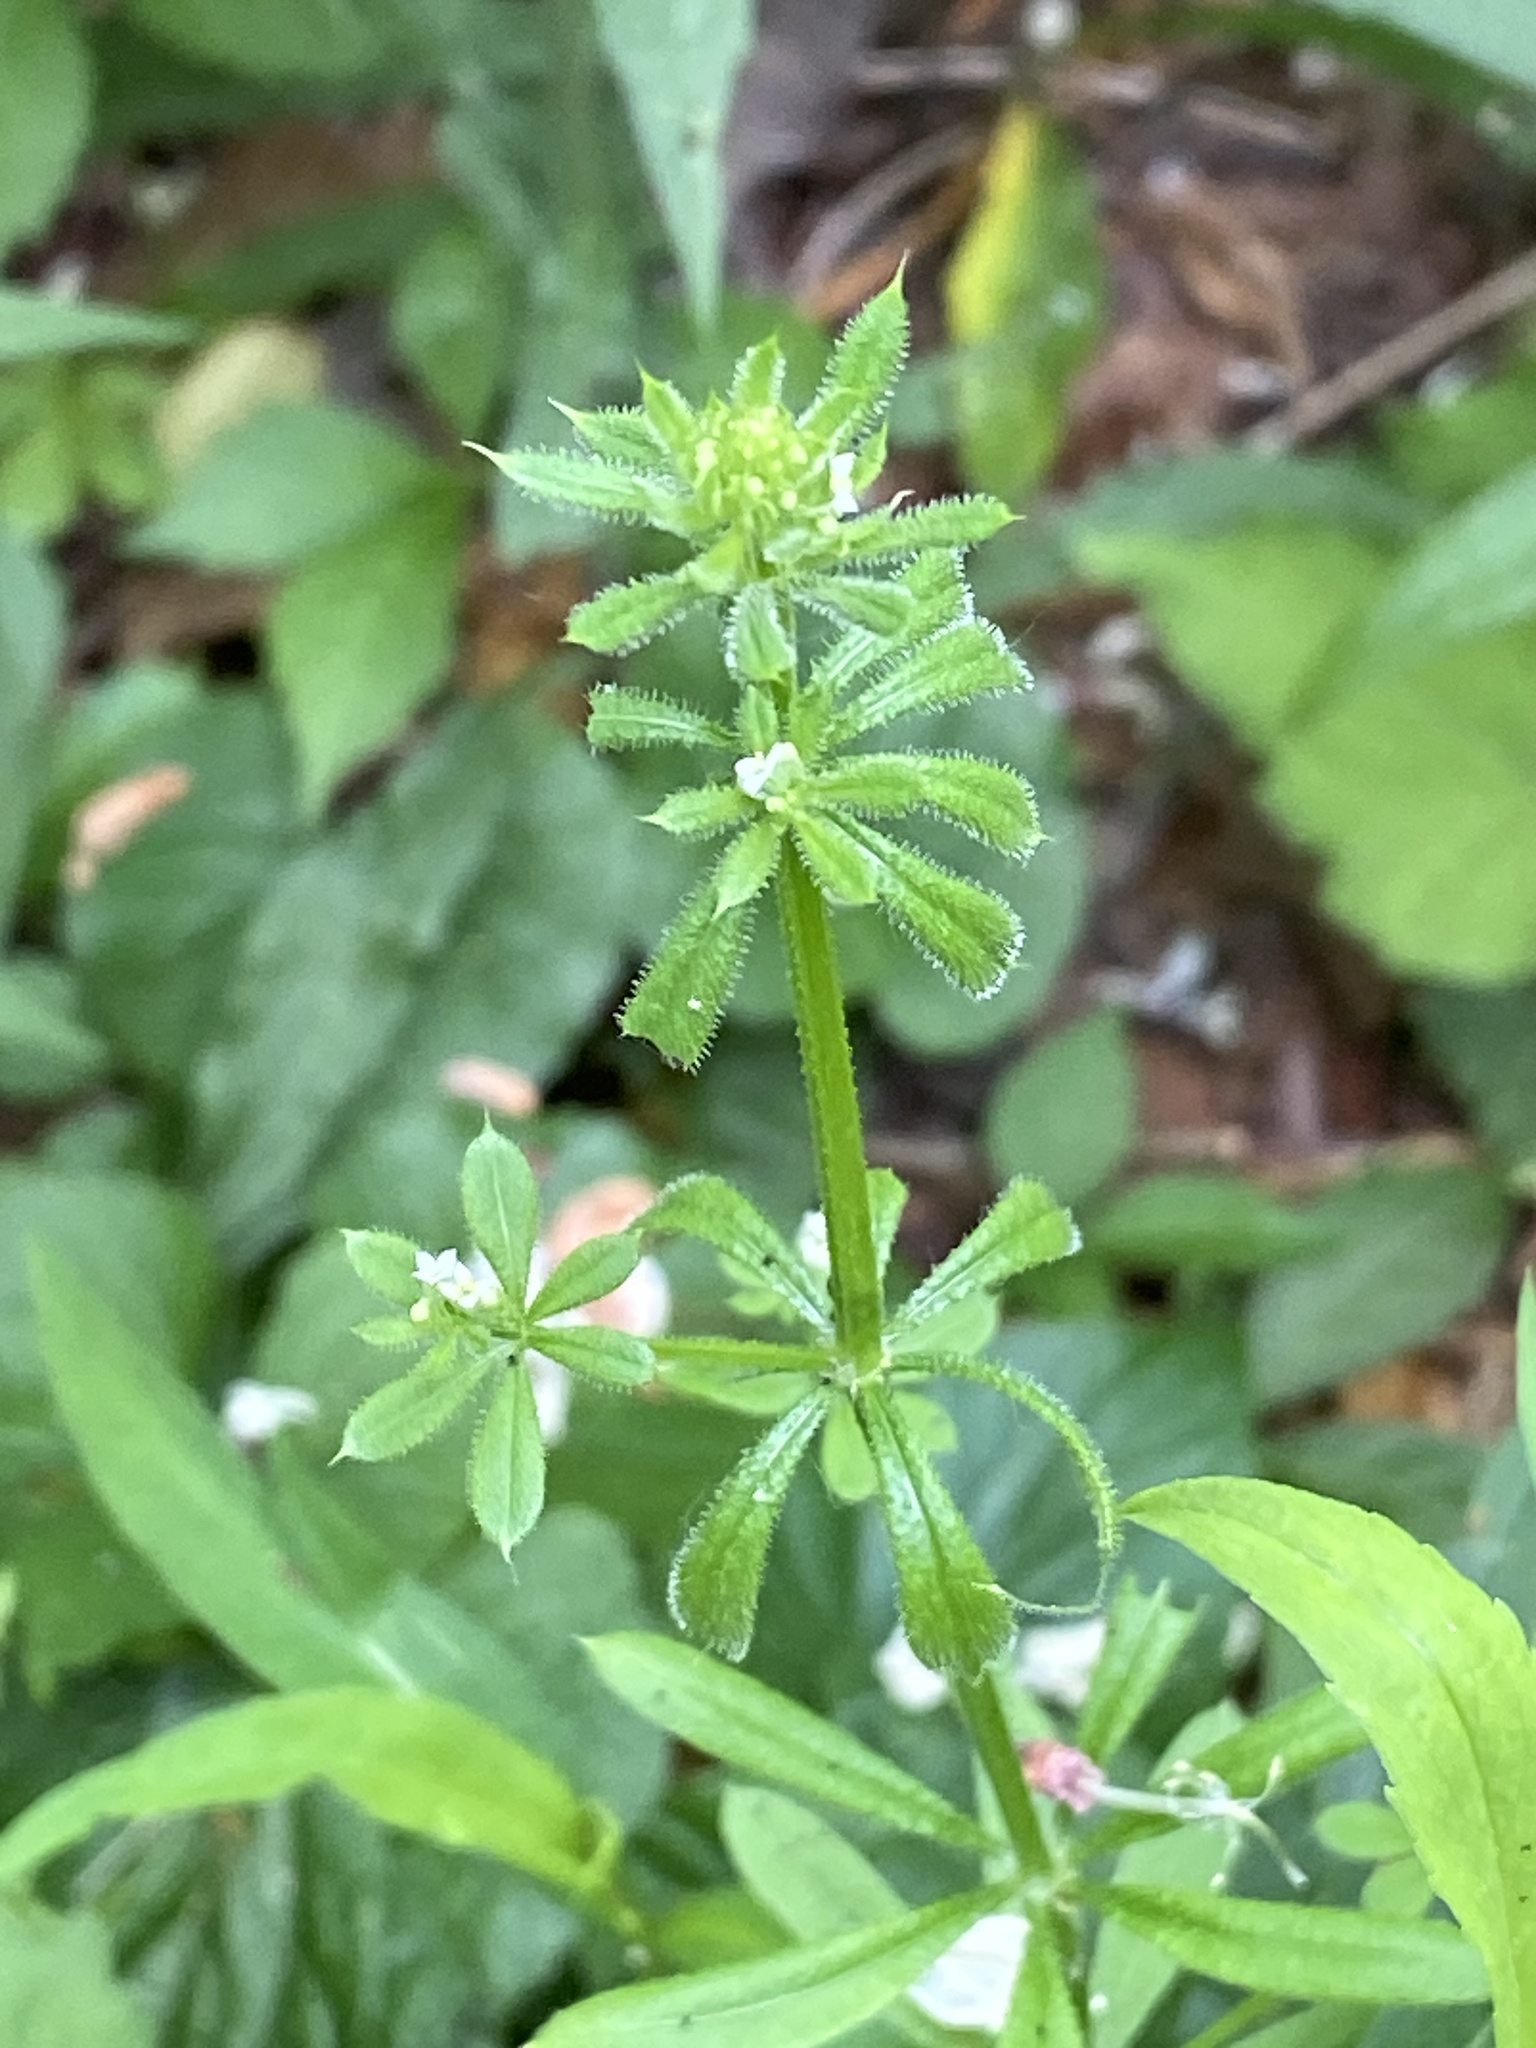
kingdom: Plantae
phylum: Tracheophyta
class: Magnoliopsida
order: Gentianales
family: Rubiaceae
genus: Galium
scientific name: Galium aparine
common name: Cleavers
